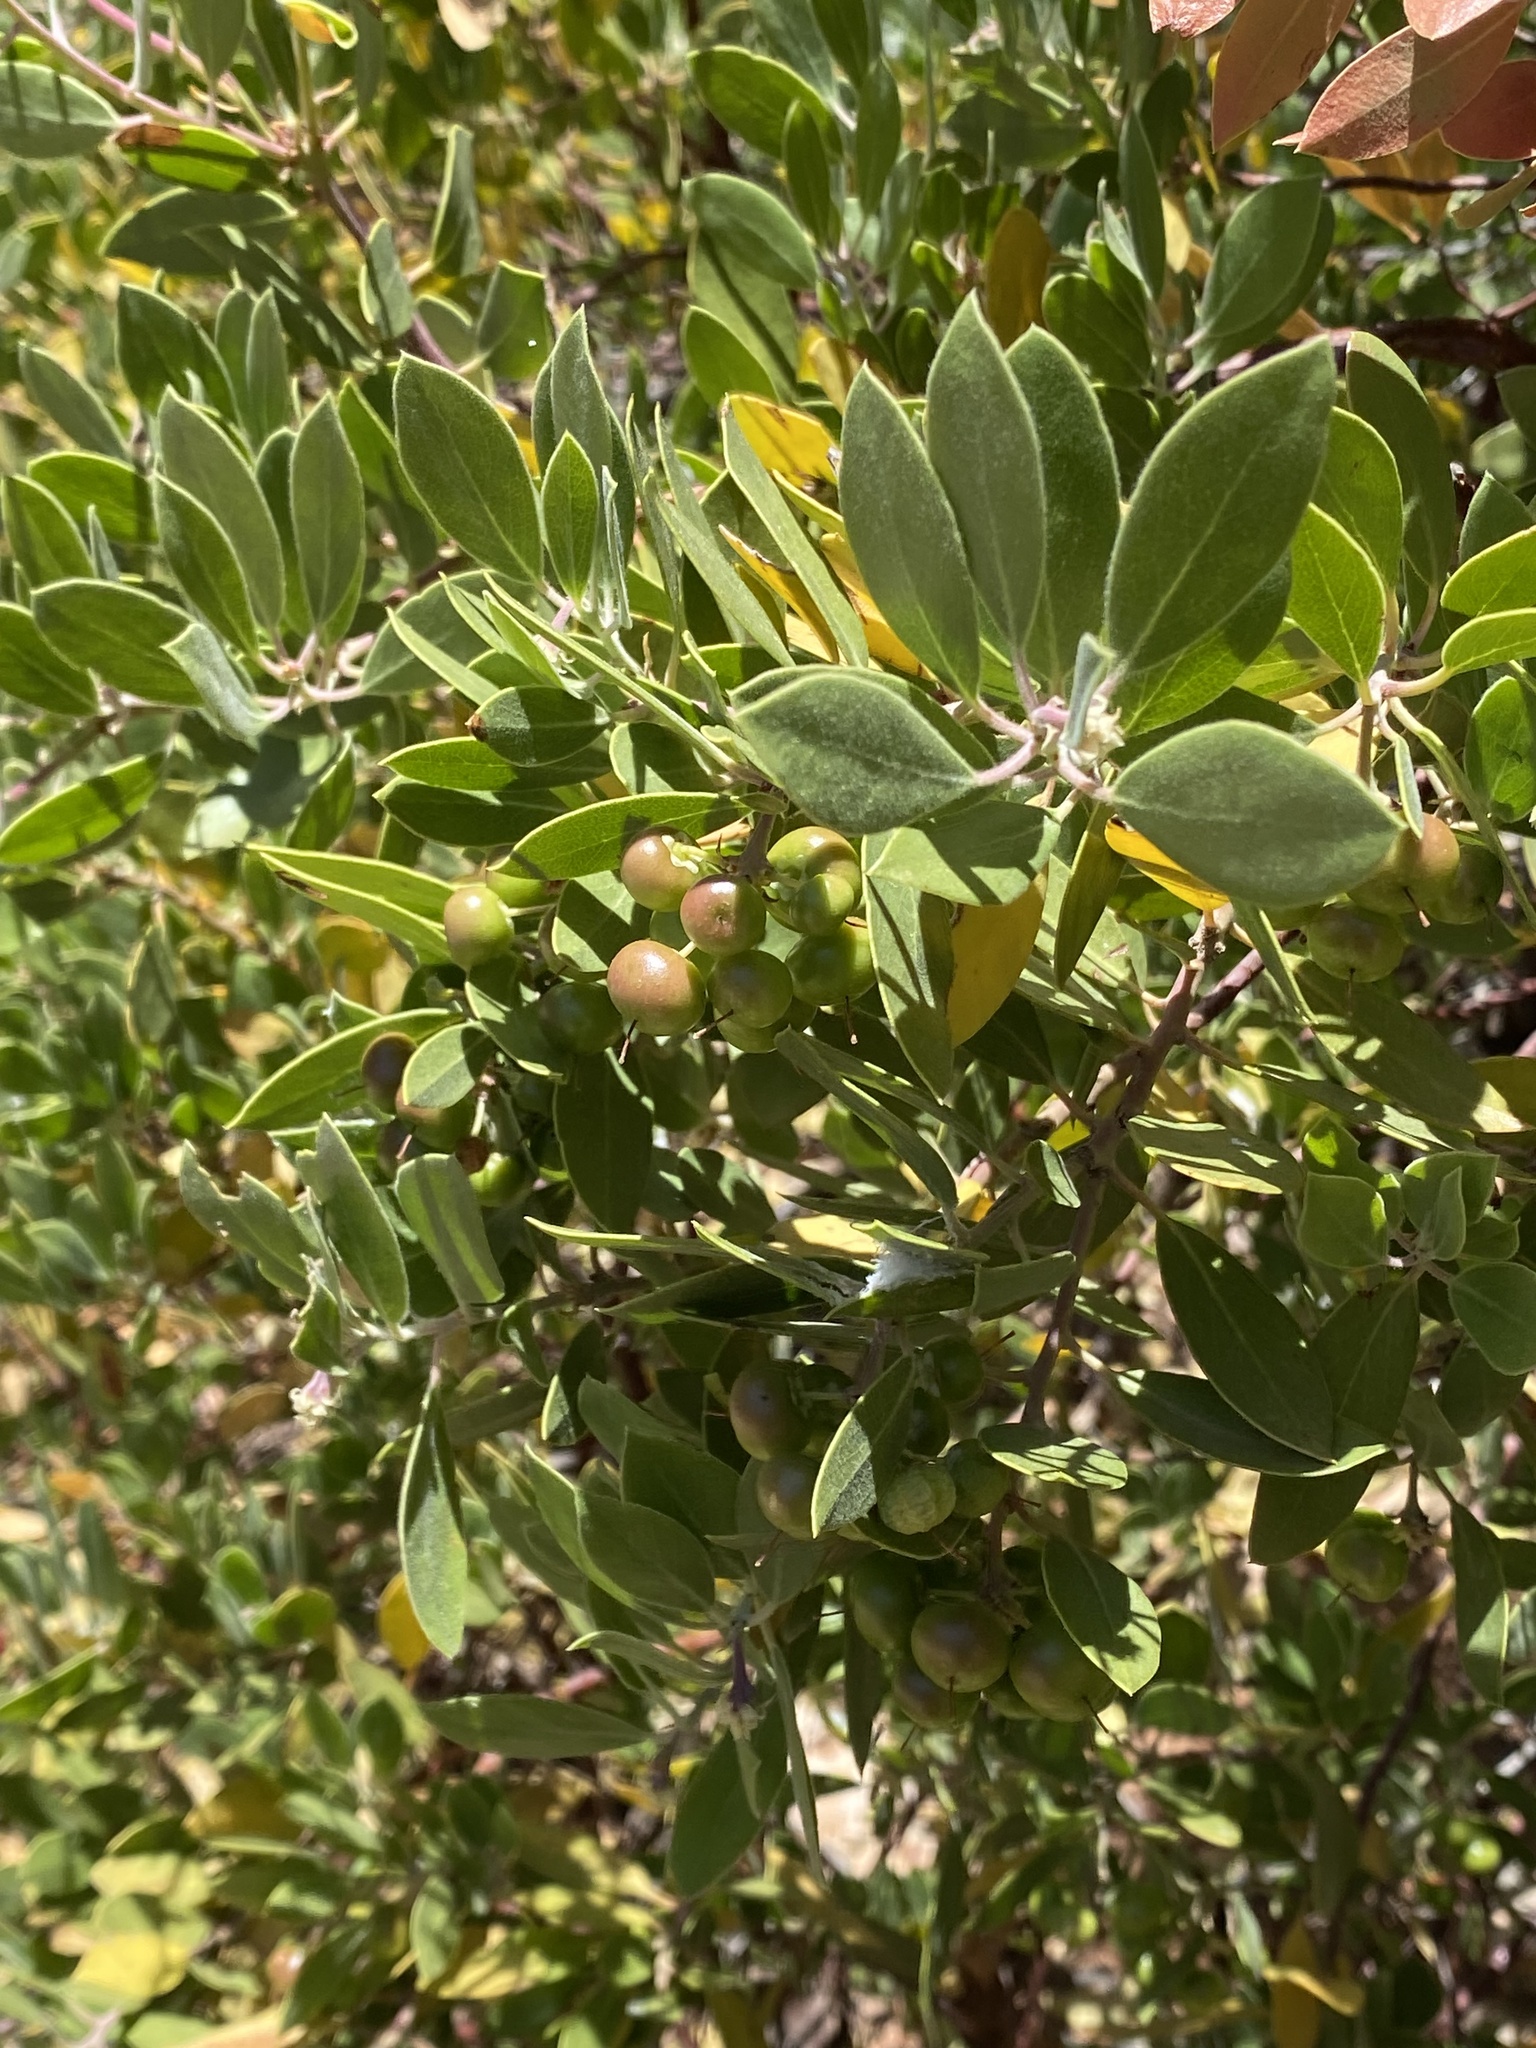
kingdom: Plantae
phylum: Tracheophyta
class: Magnoliopsida
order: Ericales
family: Ericaceae
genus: Arctostaphylos
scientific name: Arctostaphylos pungens
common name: Mexican manzanita
